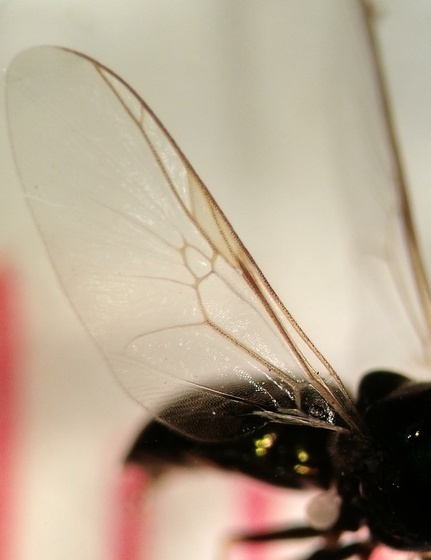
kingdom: Animalia
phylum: Arthropoda
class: Insecta
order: Diptera
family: Stratiomyidae
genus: Microchrysa
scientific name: Microchrysa polita
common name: Black-horned gem
